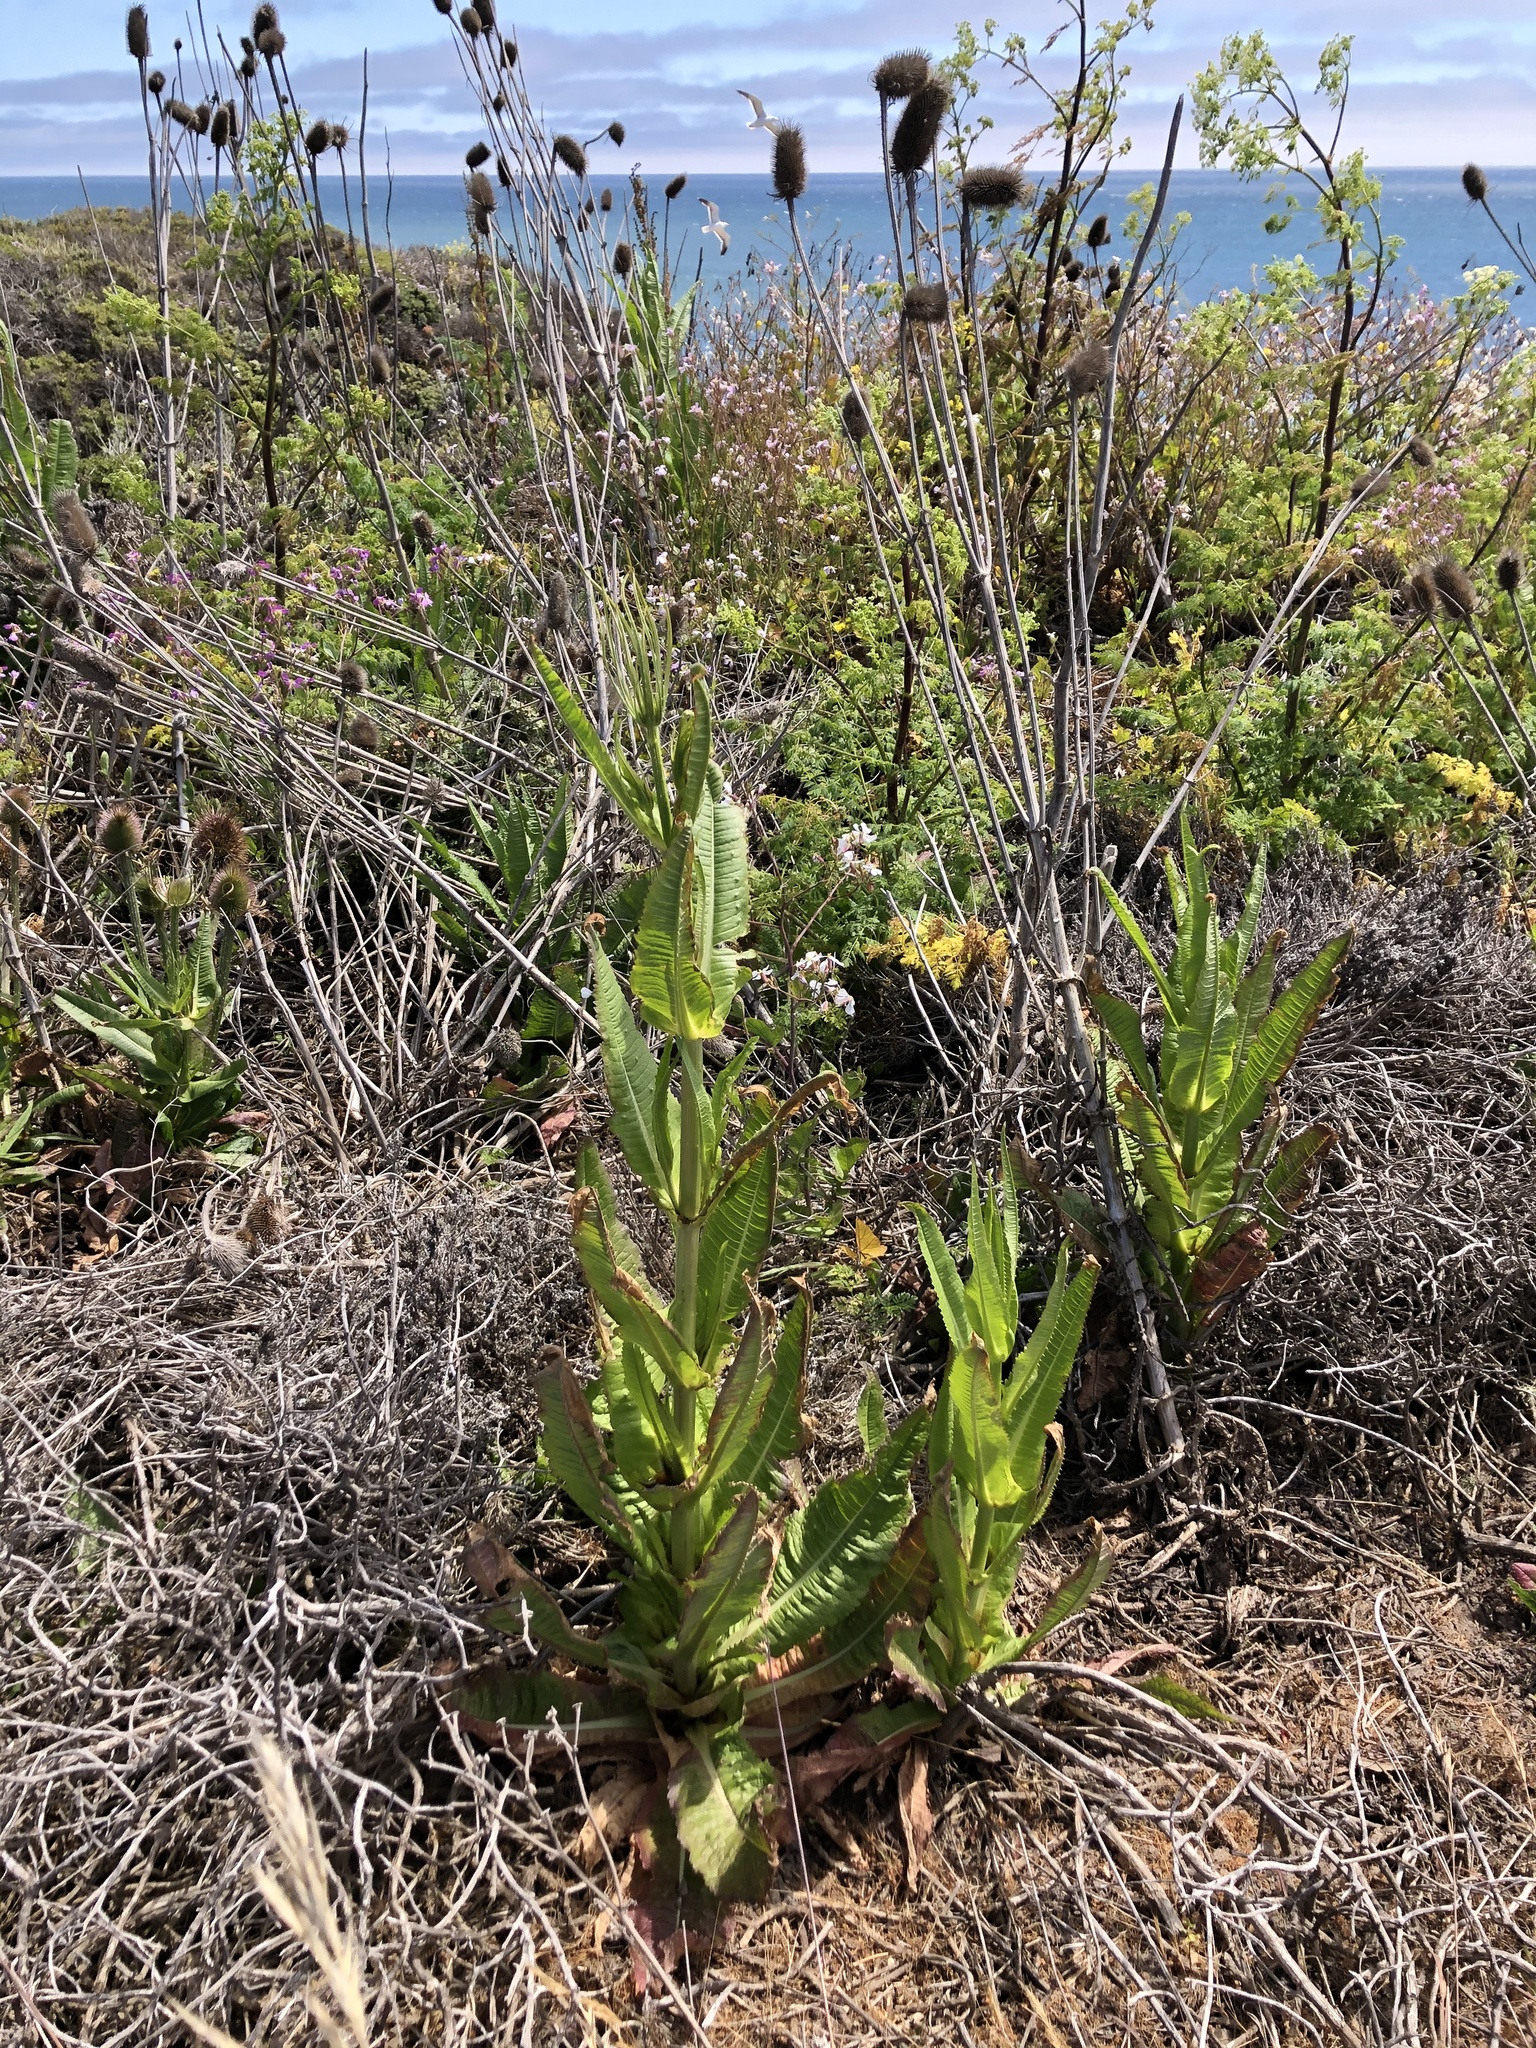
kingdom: Plantae
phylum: Tracheophyta
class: Magnoliopsida
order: Dipsacales
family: Caprifoliaceae
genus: Dipsacus
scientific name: Dipsacus fullonum
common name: Teasel
